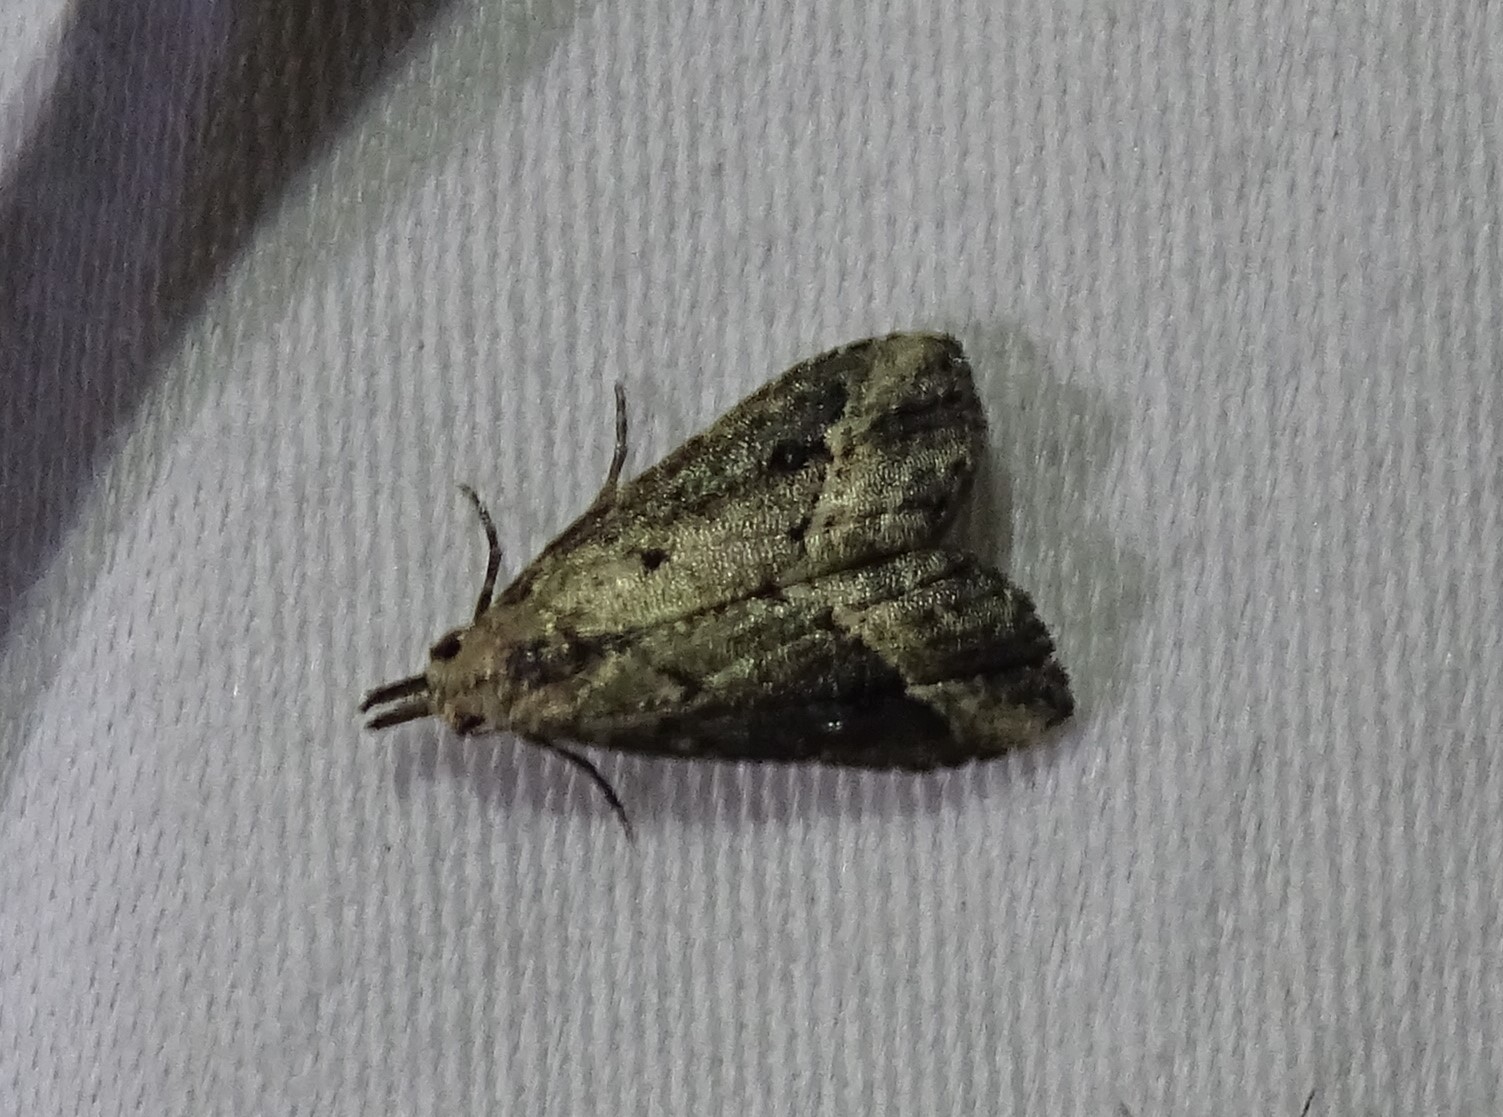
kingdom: Animalia
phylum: Arthropoda
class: Insecta
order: Lepidoptera
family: Erebidae
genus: Schrankia
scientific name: Schrankia
